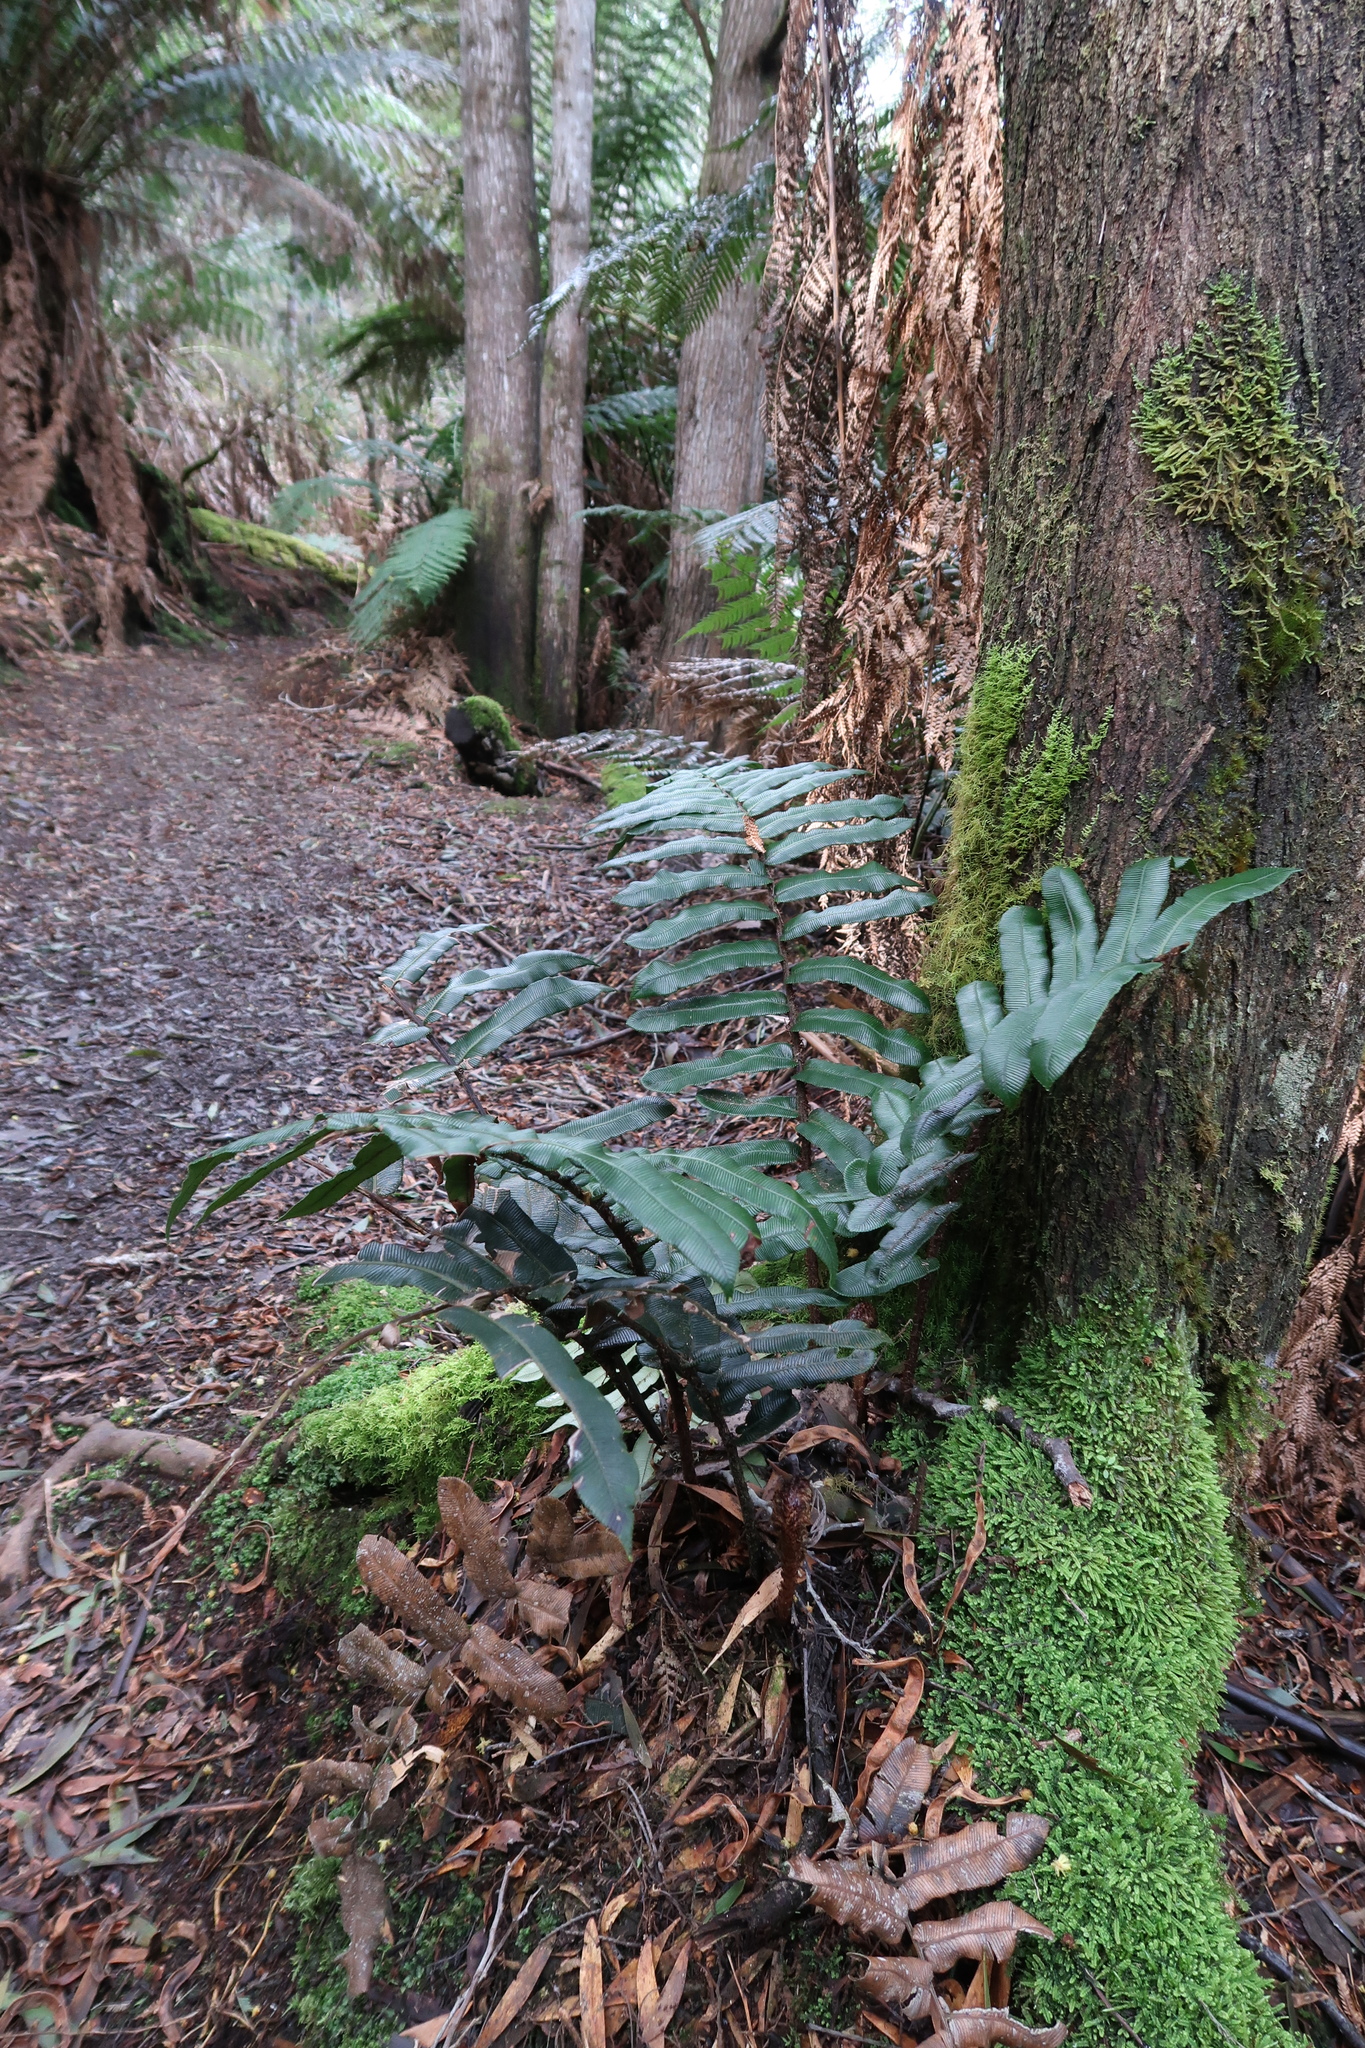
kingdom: Plantae
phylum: Tracheophyta
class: Polypodiopsida
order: Polypodiales
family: Blechnaceae
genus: Parablechnum
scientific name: Parablechnum wattsii
